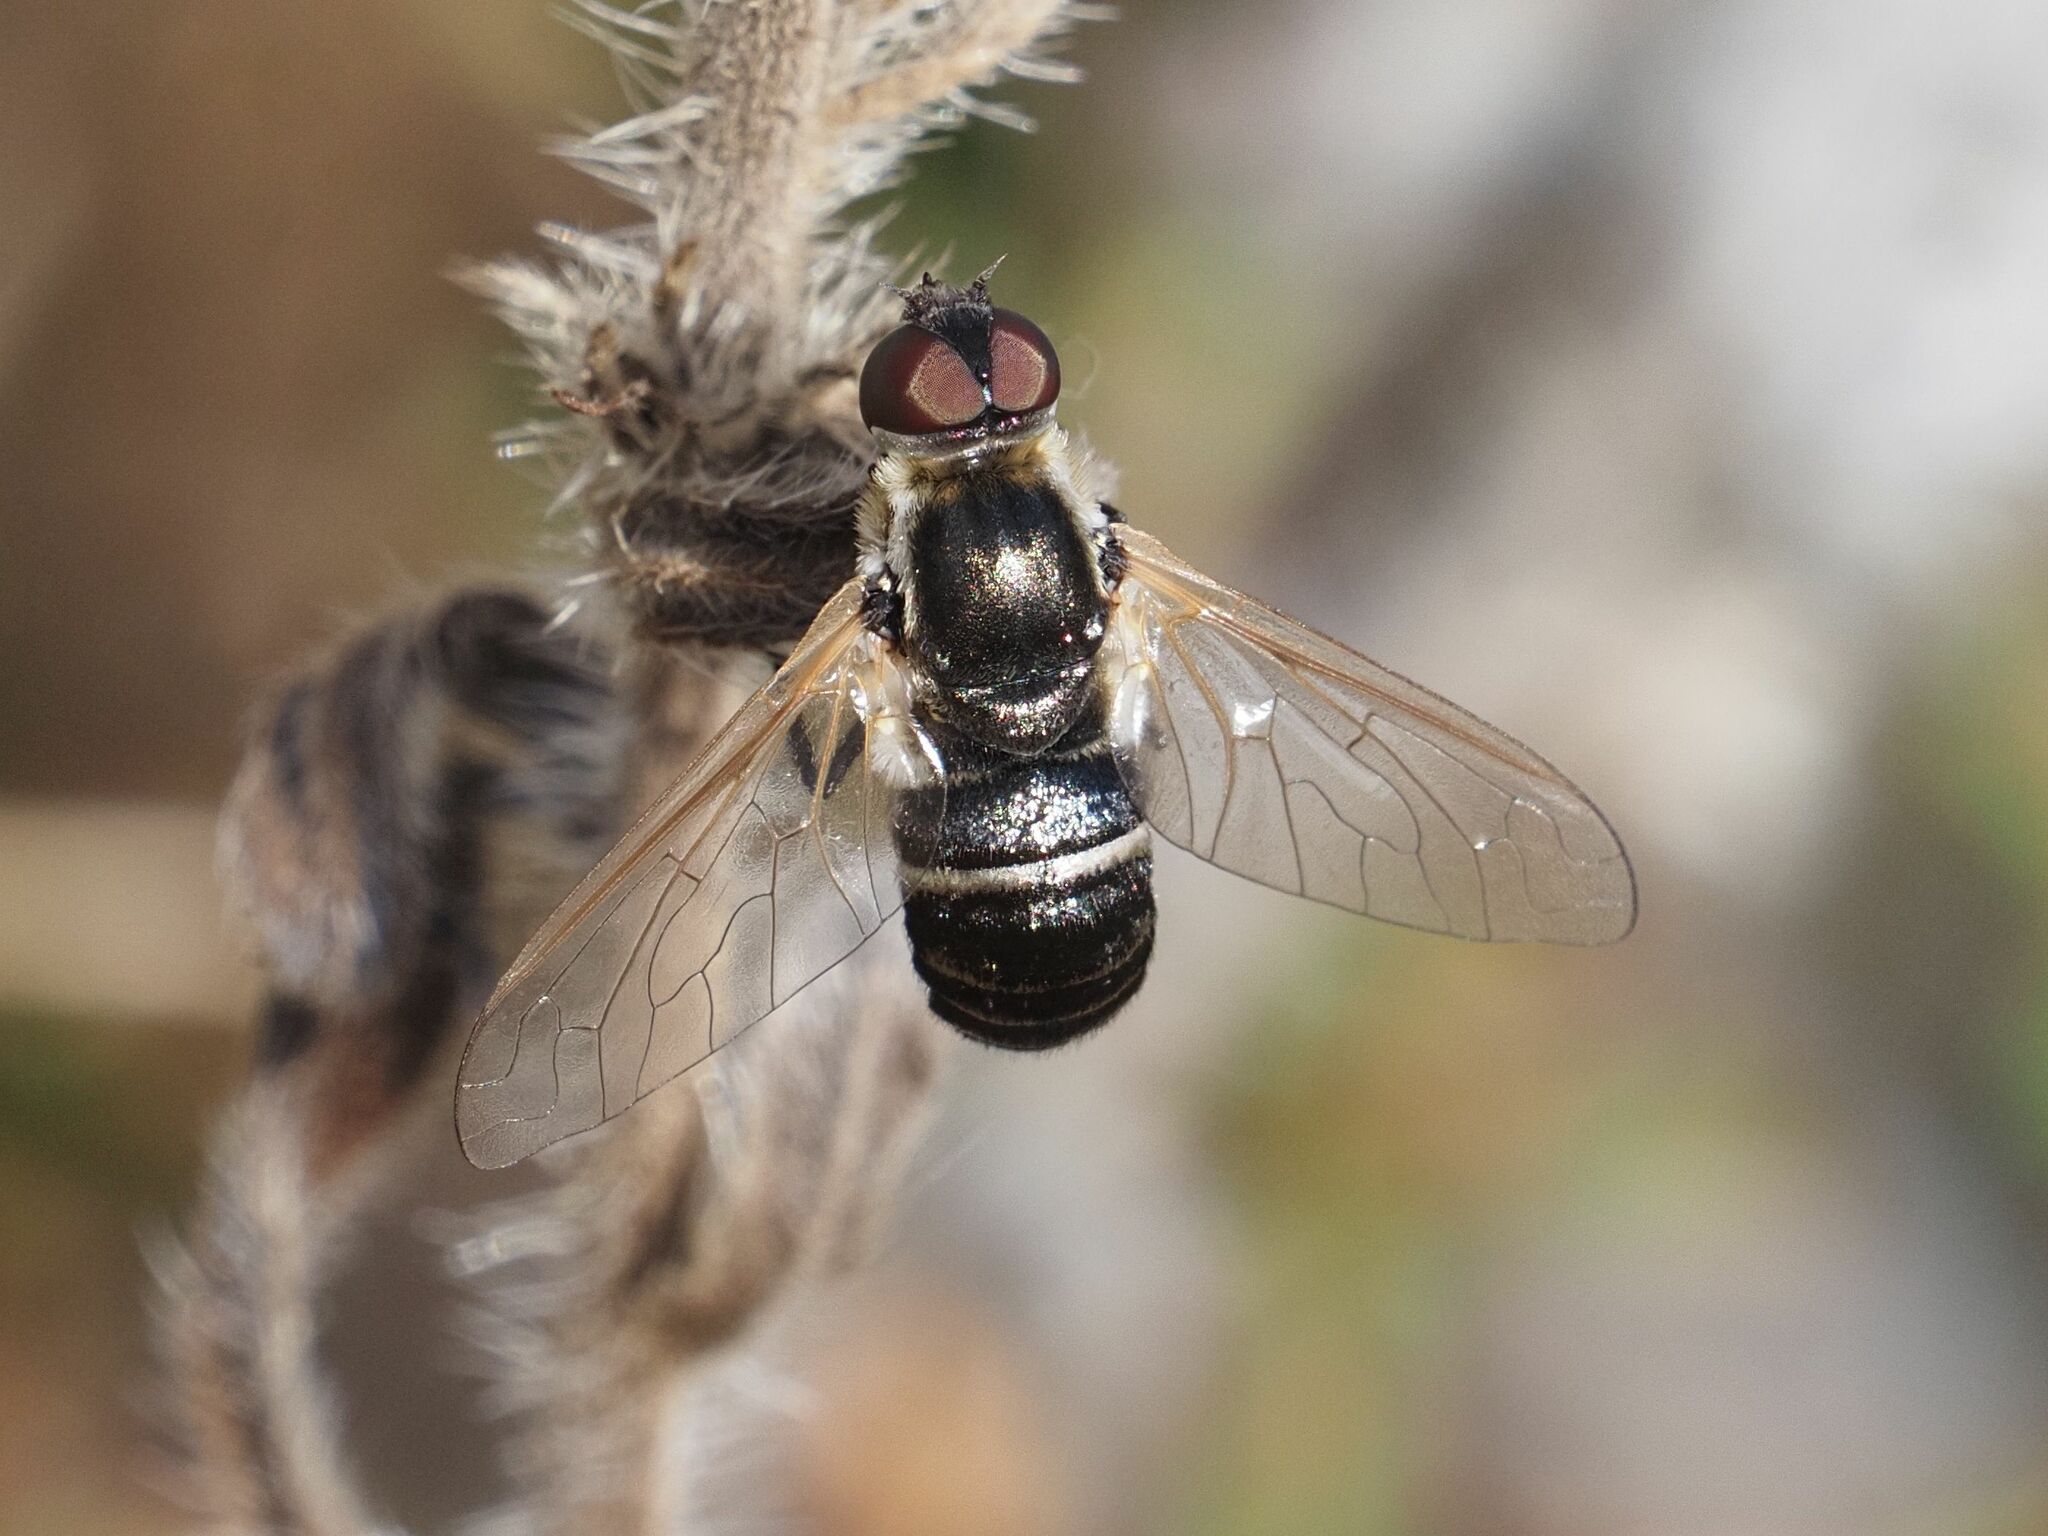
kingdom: Animalia
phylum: Arthropoda
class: Insecta
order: Diptera
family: Bombyliidae
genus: Micomitra
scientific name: Micomitra stupida
